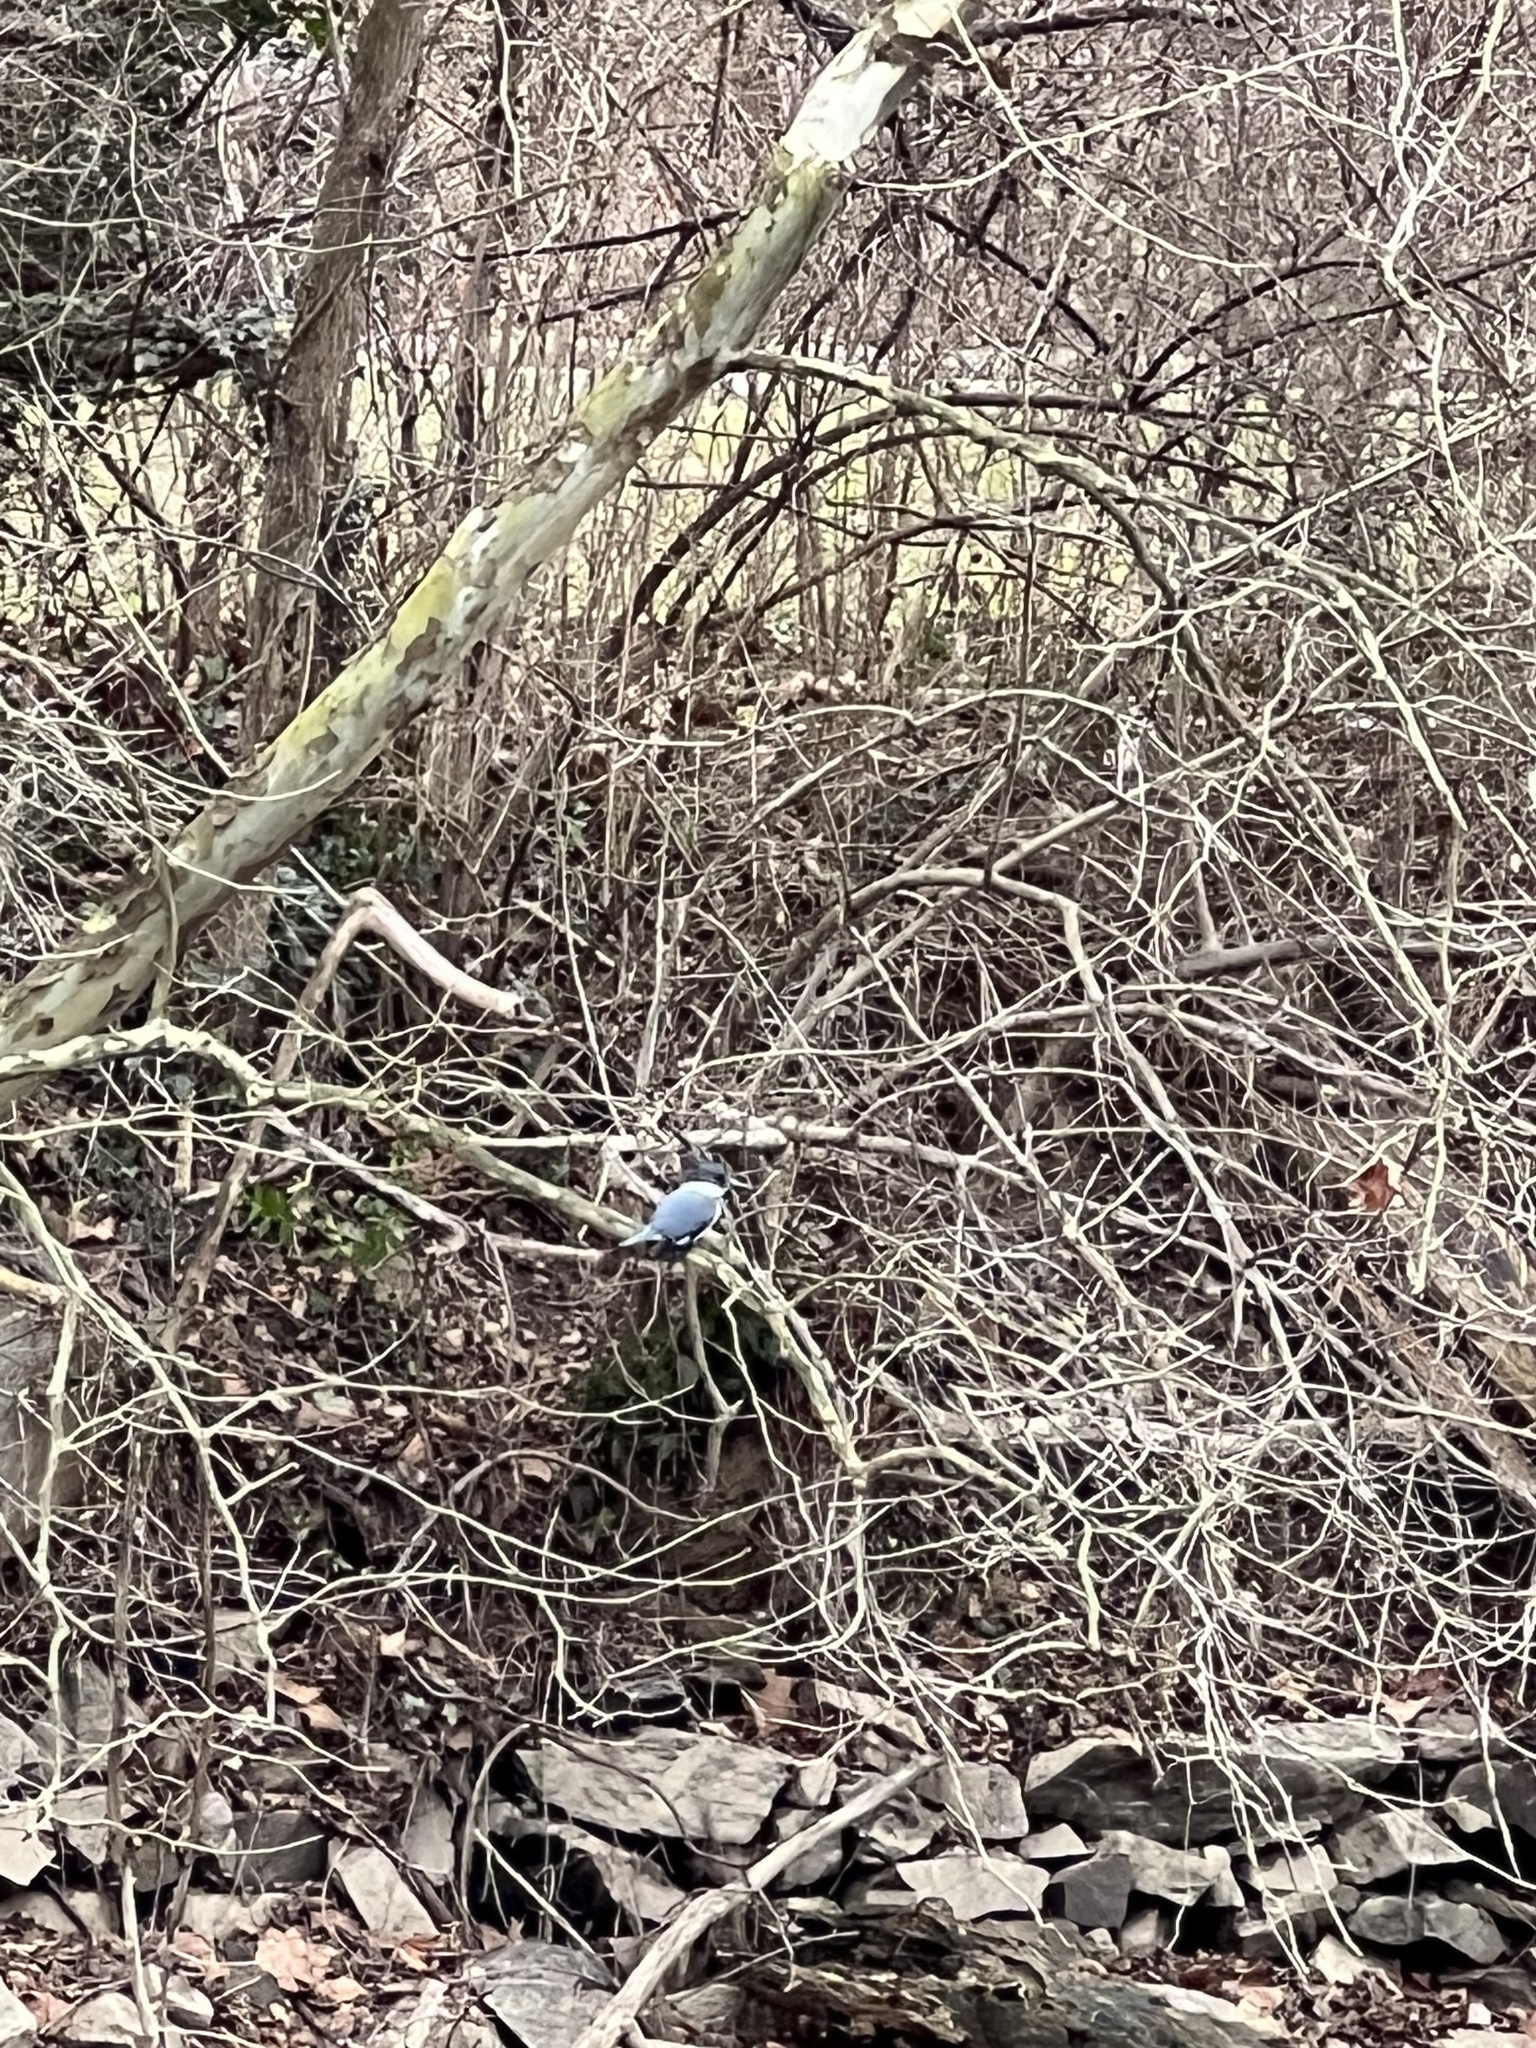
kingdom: Animalia
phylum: Chordata
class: Aves
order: Coraciiformes
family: Alcedinidae
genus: Megaceryle
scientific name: Megaceryle alcyon
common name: Belted kingfisher
